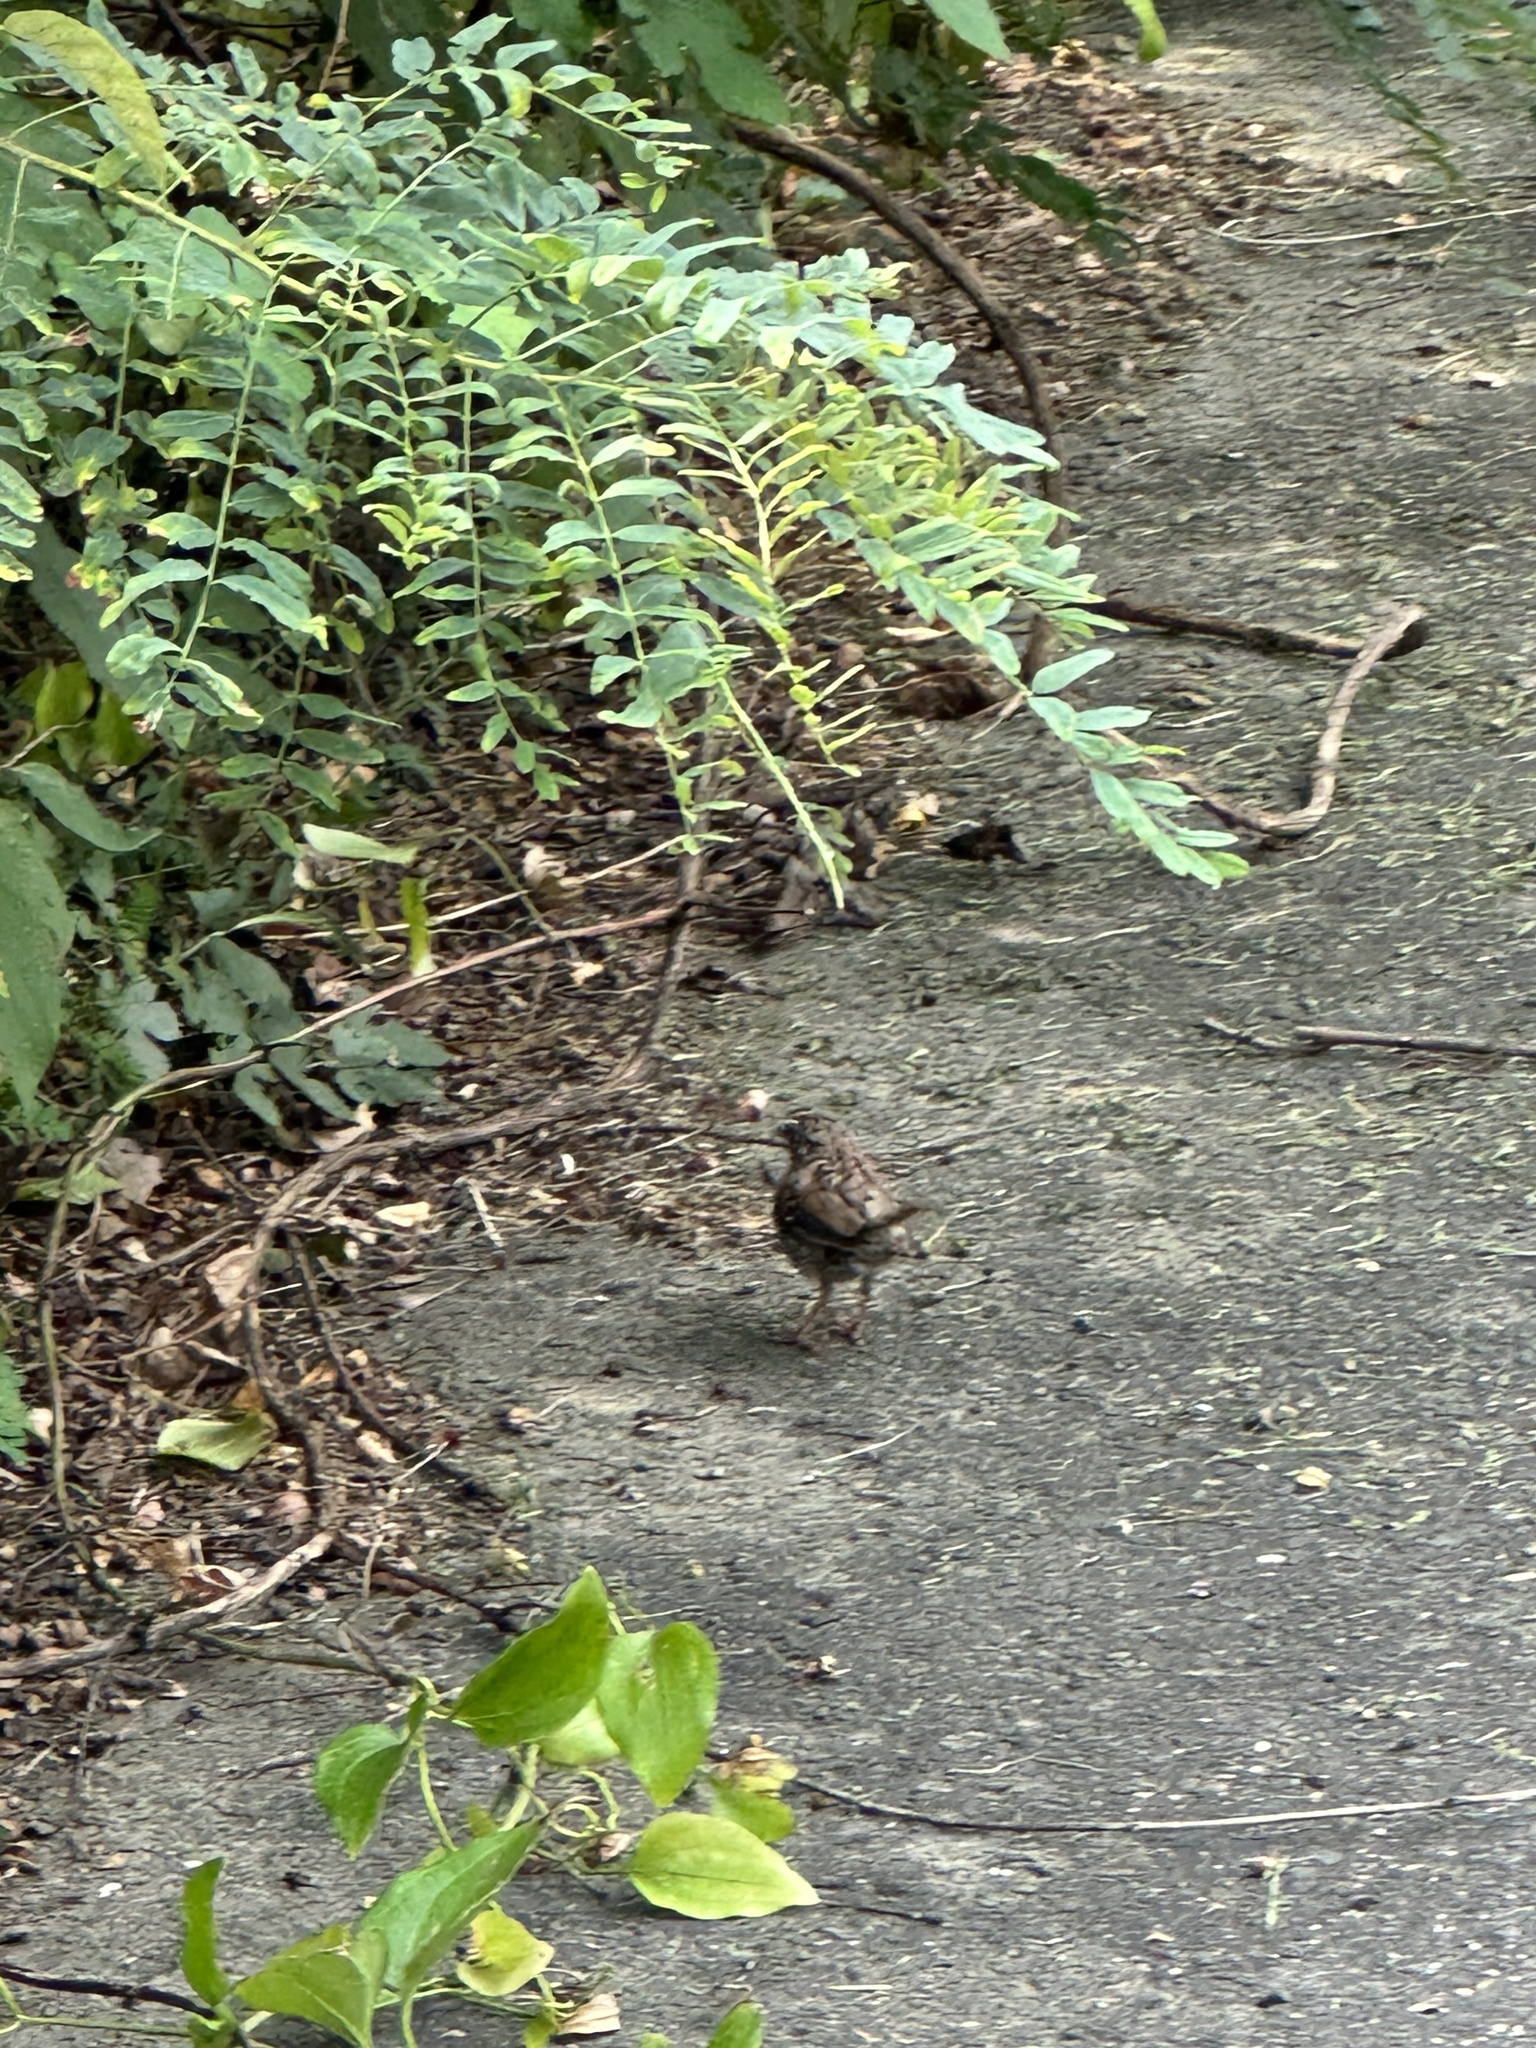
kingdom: Animalia
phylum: Chordata
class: Aves
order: Passeriformes
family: Passerellidae
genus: Melospiza
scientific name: Melospiza melodia
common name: Song sparrow
